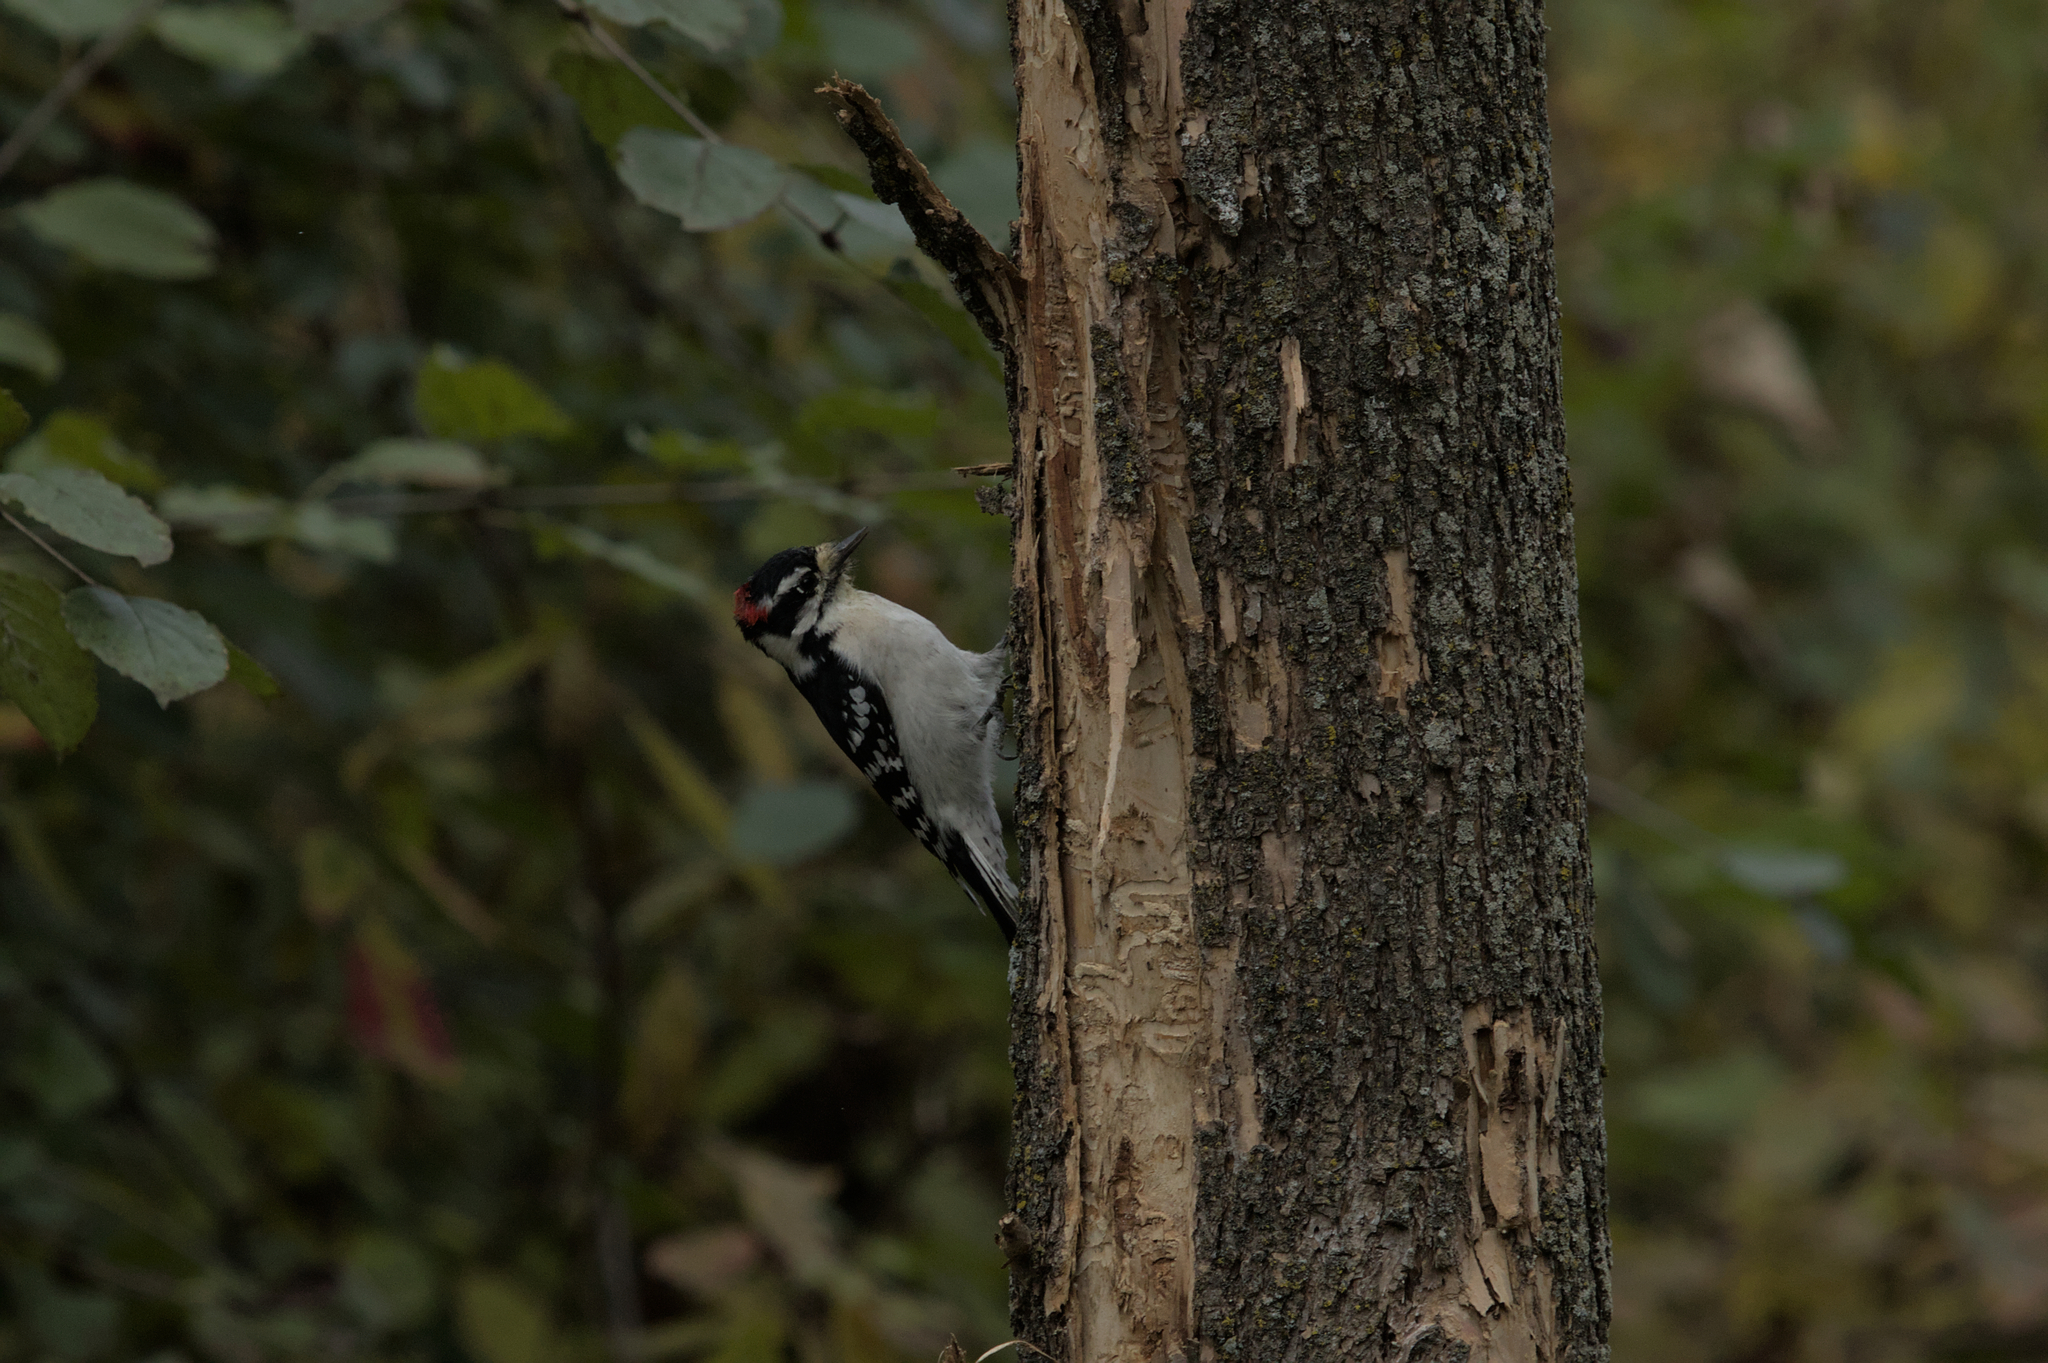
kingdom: Animalia
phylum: Chordata
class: Aves
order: Piciformes
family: Picidae
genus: Dryobates
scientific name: Dryobates pubescens
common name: Downy woodpecker
